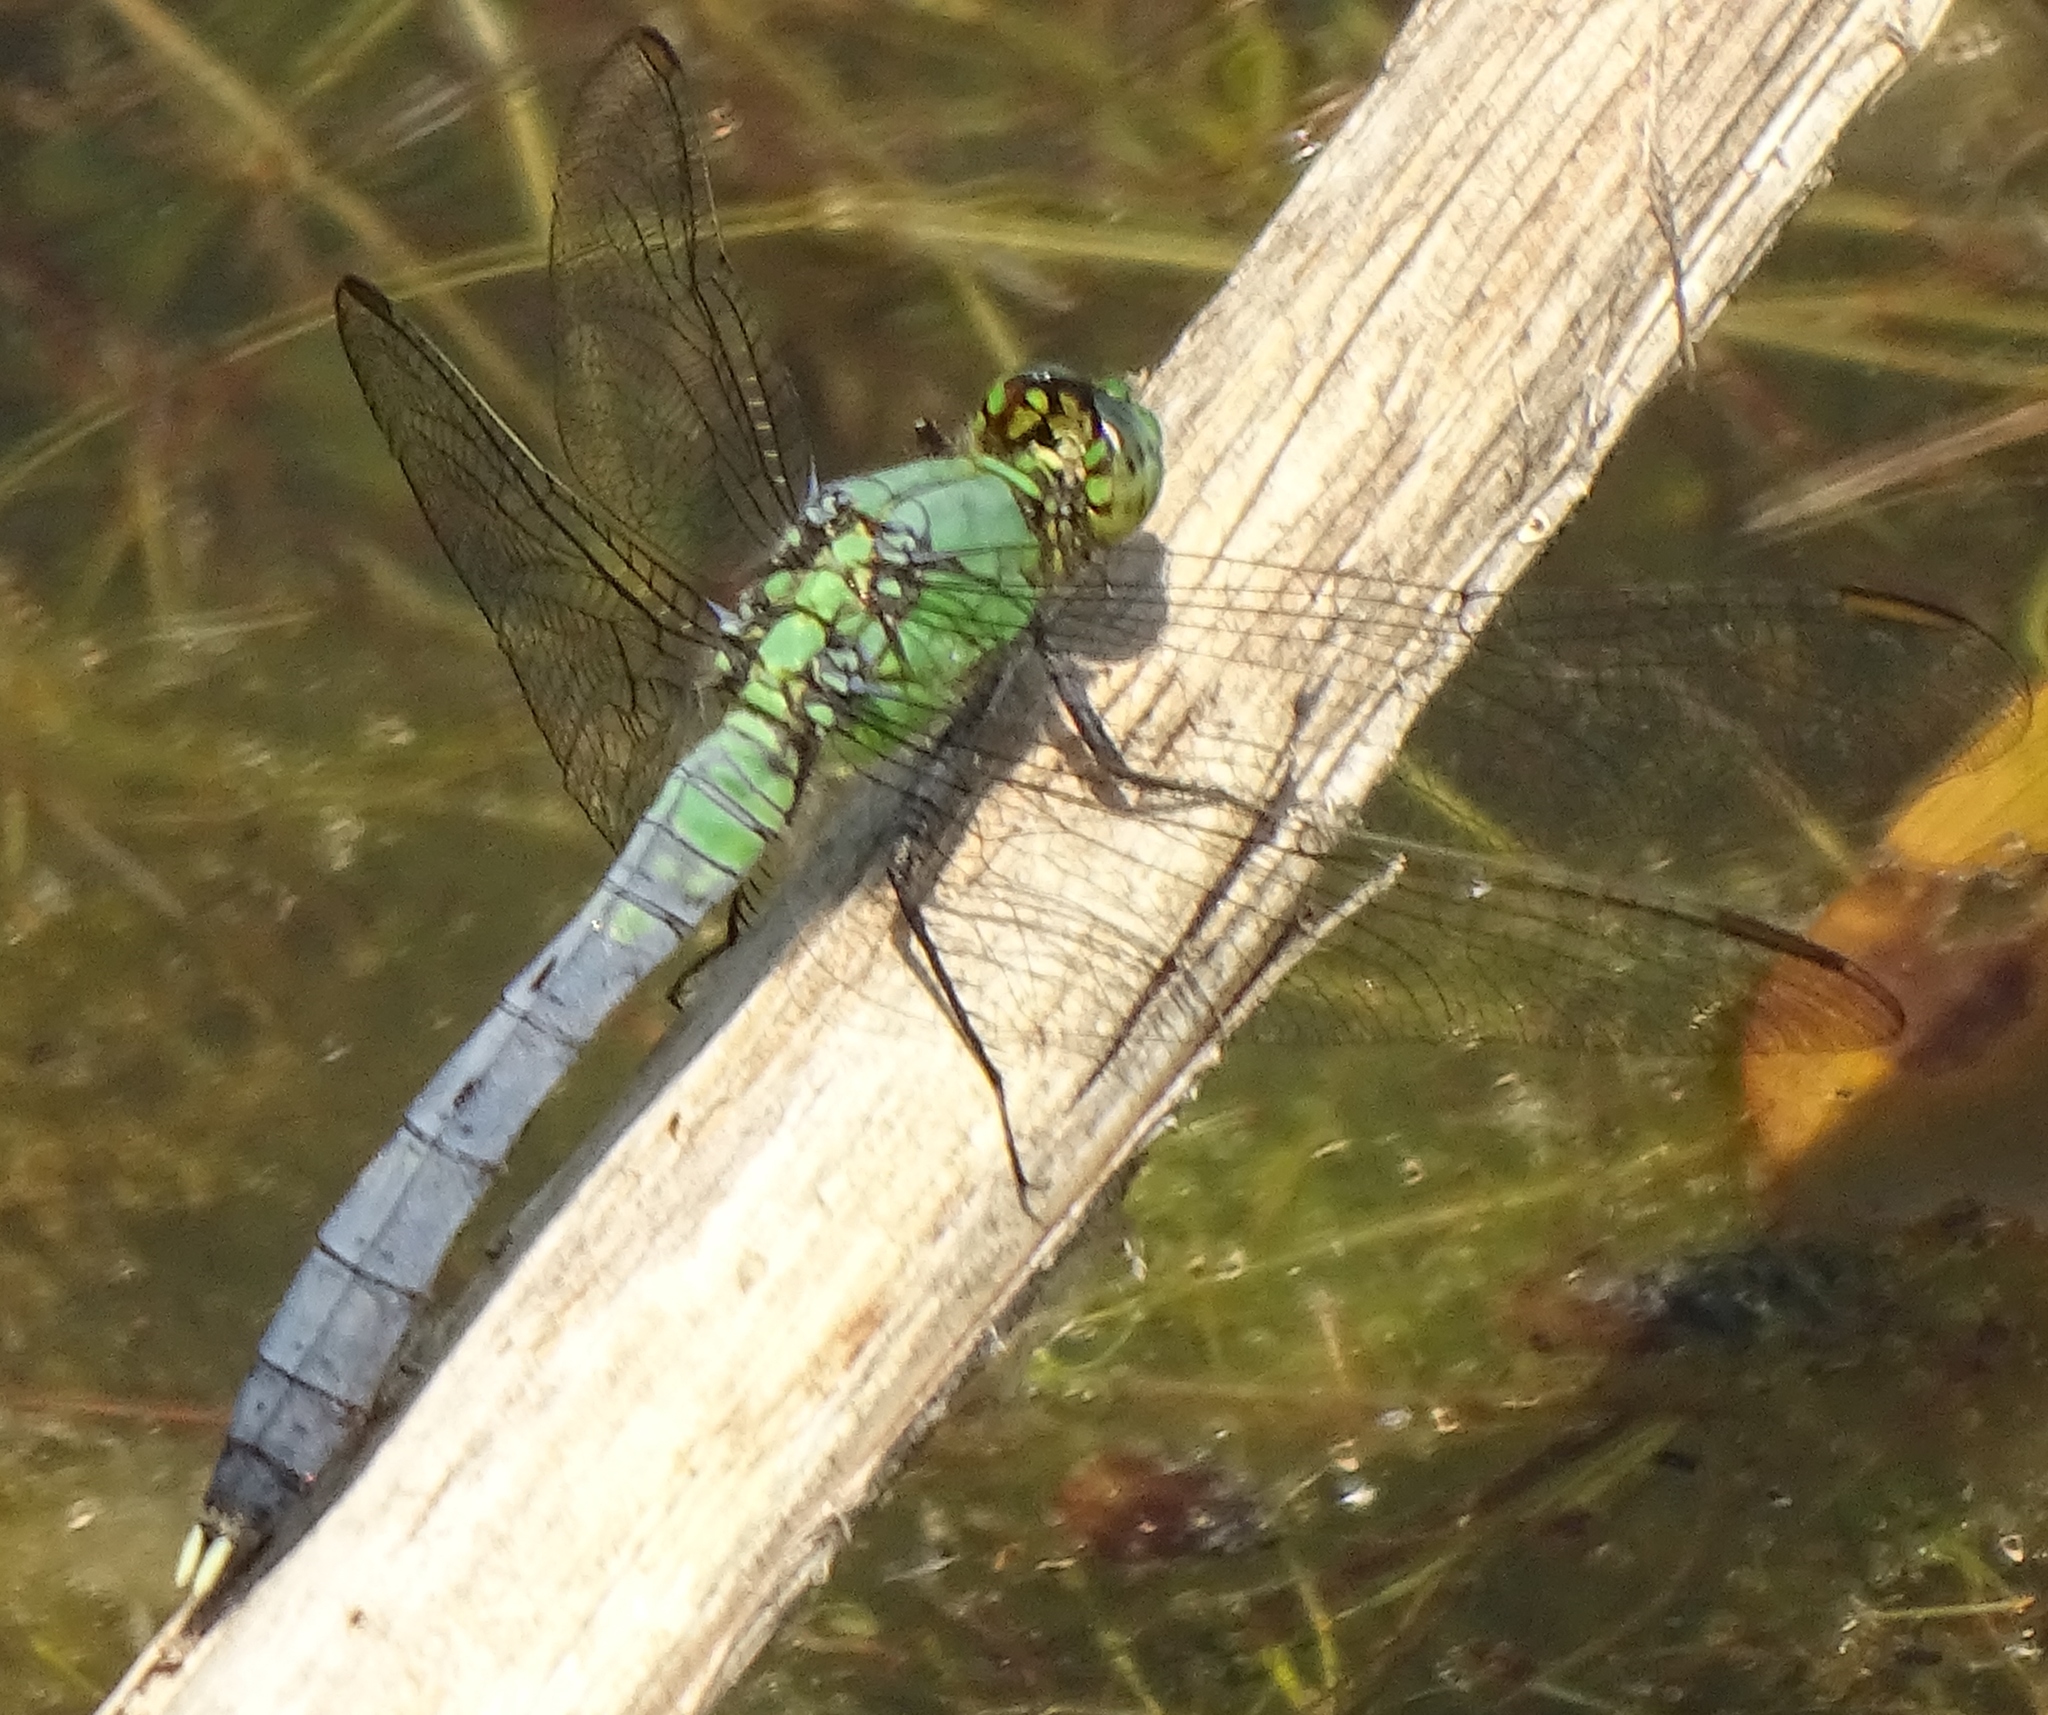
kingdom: Animalia
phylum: Arthropoda
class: Insecta
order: Odonata
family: Libellulidae
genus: Erythemis
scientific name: Erythemis simplicicollis
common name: Eastern pondhawk
